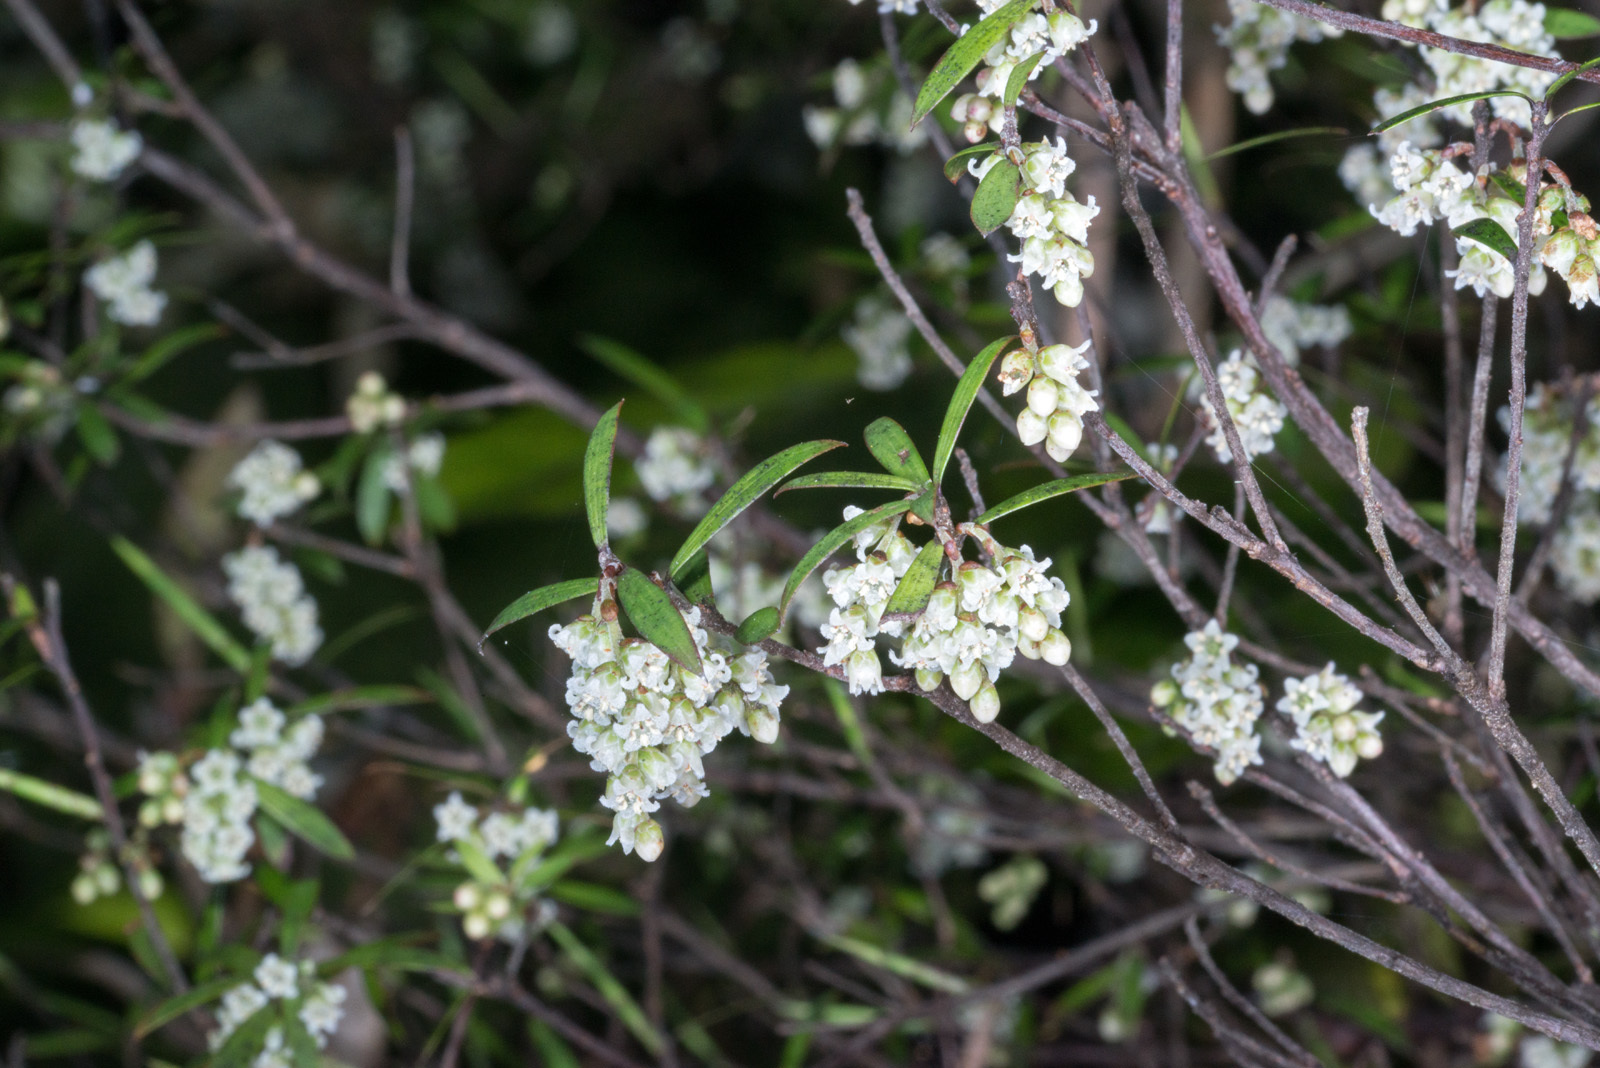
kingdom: Plantae
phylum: Tracheophyta
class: Magnoliopsida
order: Ericales
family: Ericaceae
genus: Leucopogon
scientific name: Leucopogon fasciculatus
